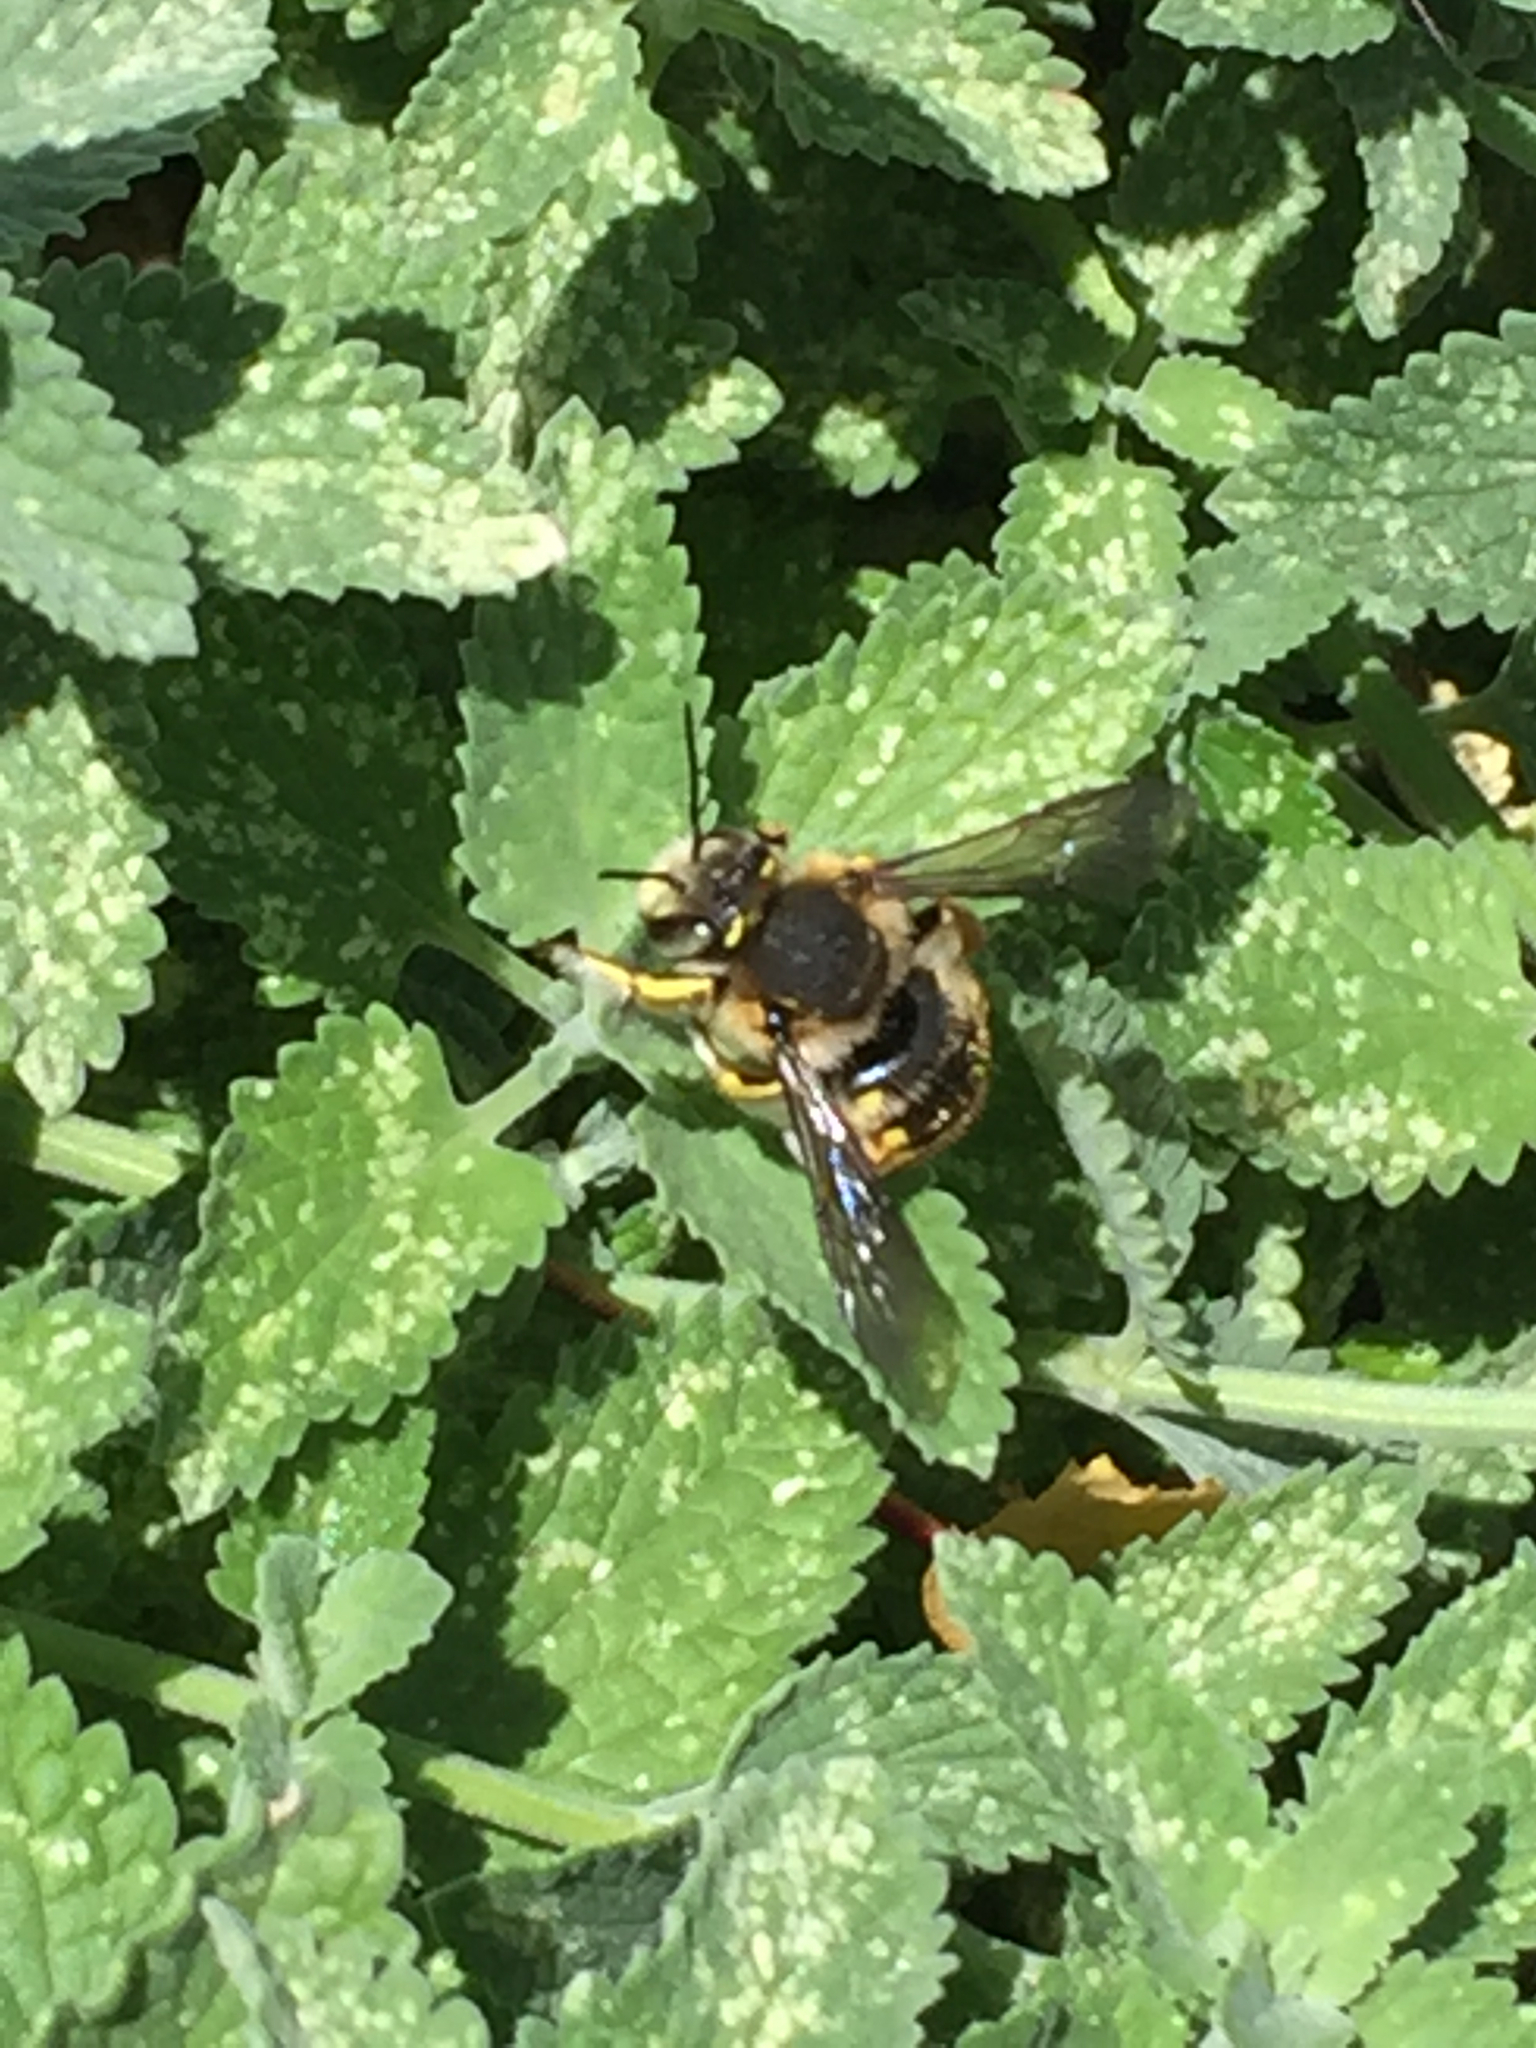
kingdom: Animalia
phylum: Arthropoda
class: Insecta
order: Hymenoptera
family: Megachilidae
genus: Anthidium
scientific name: Anthidium manicatum
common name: Wool carder bee
